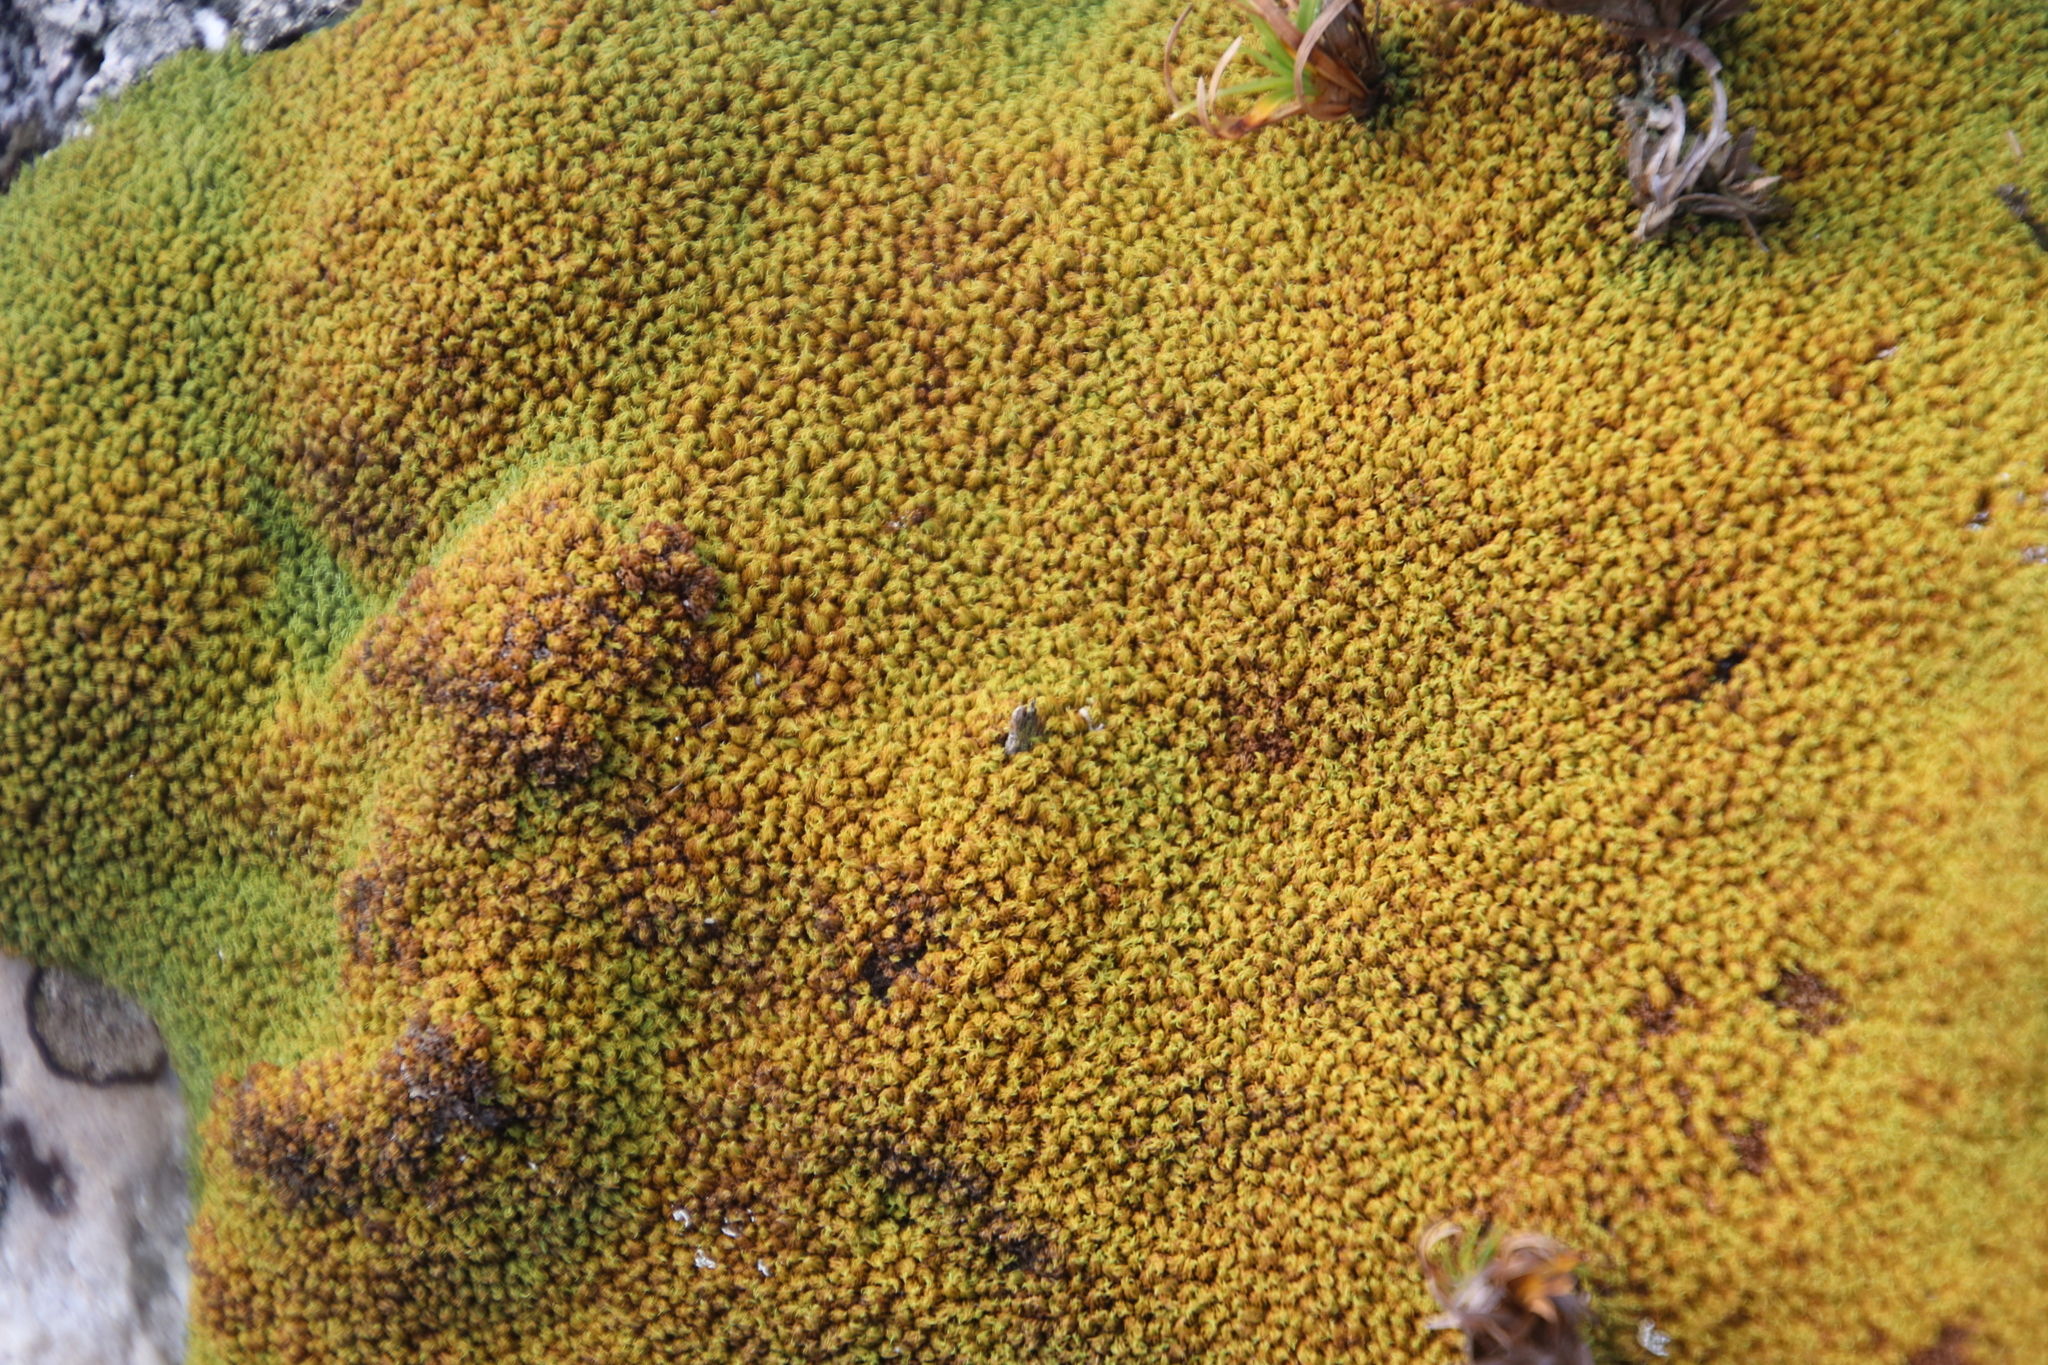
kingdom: Plantae
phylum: Bryophyta
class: Bryopsida
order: Dicranales
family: Hypodontiaceae
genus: Hypodontium
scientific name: Hypodontium pomiforme
